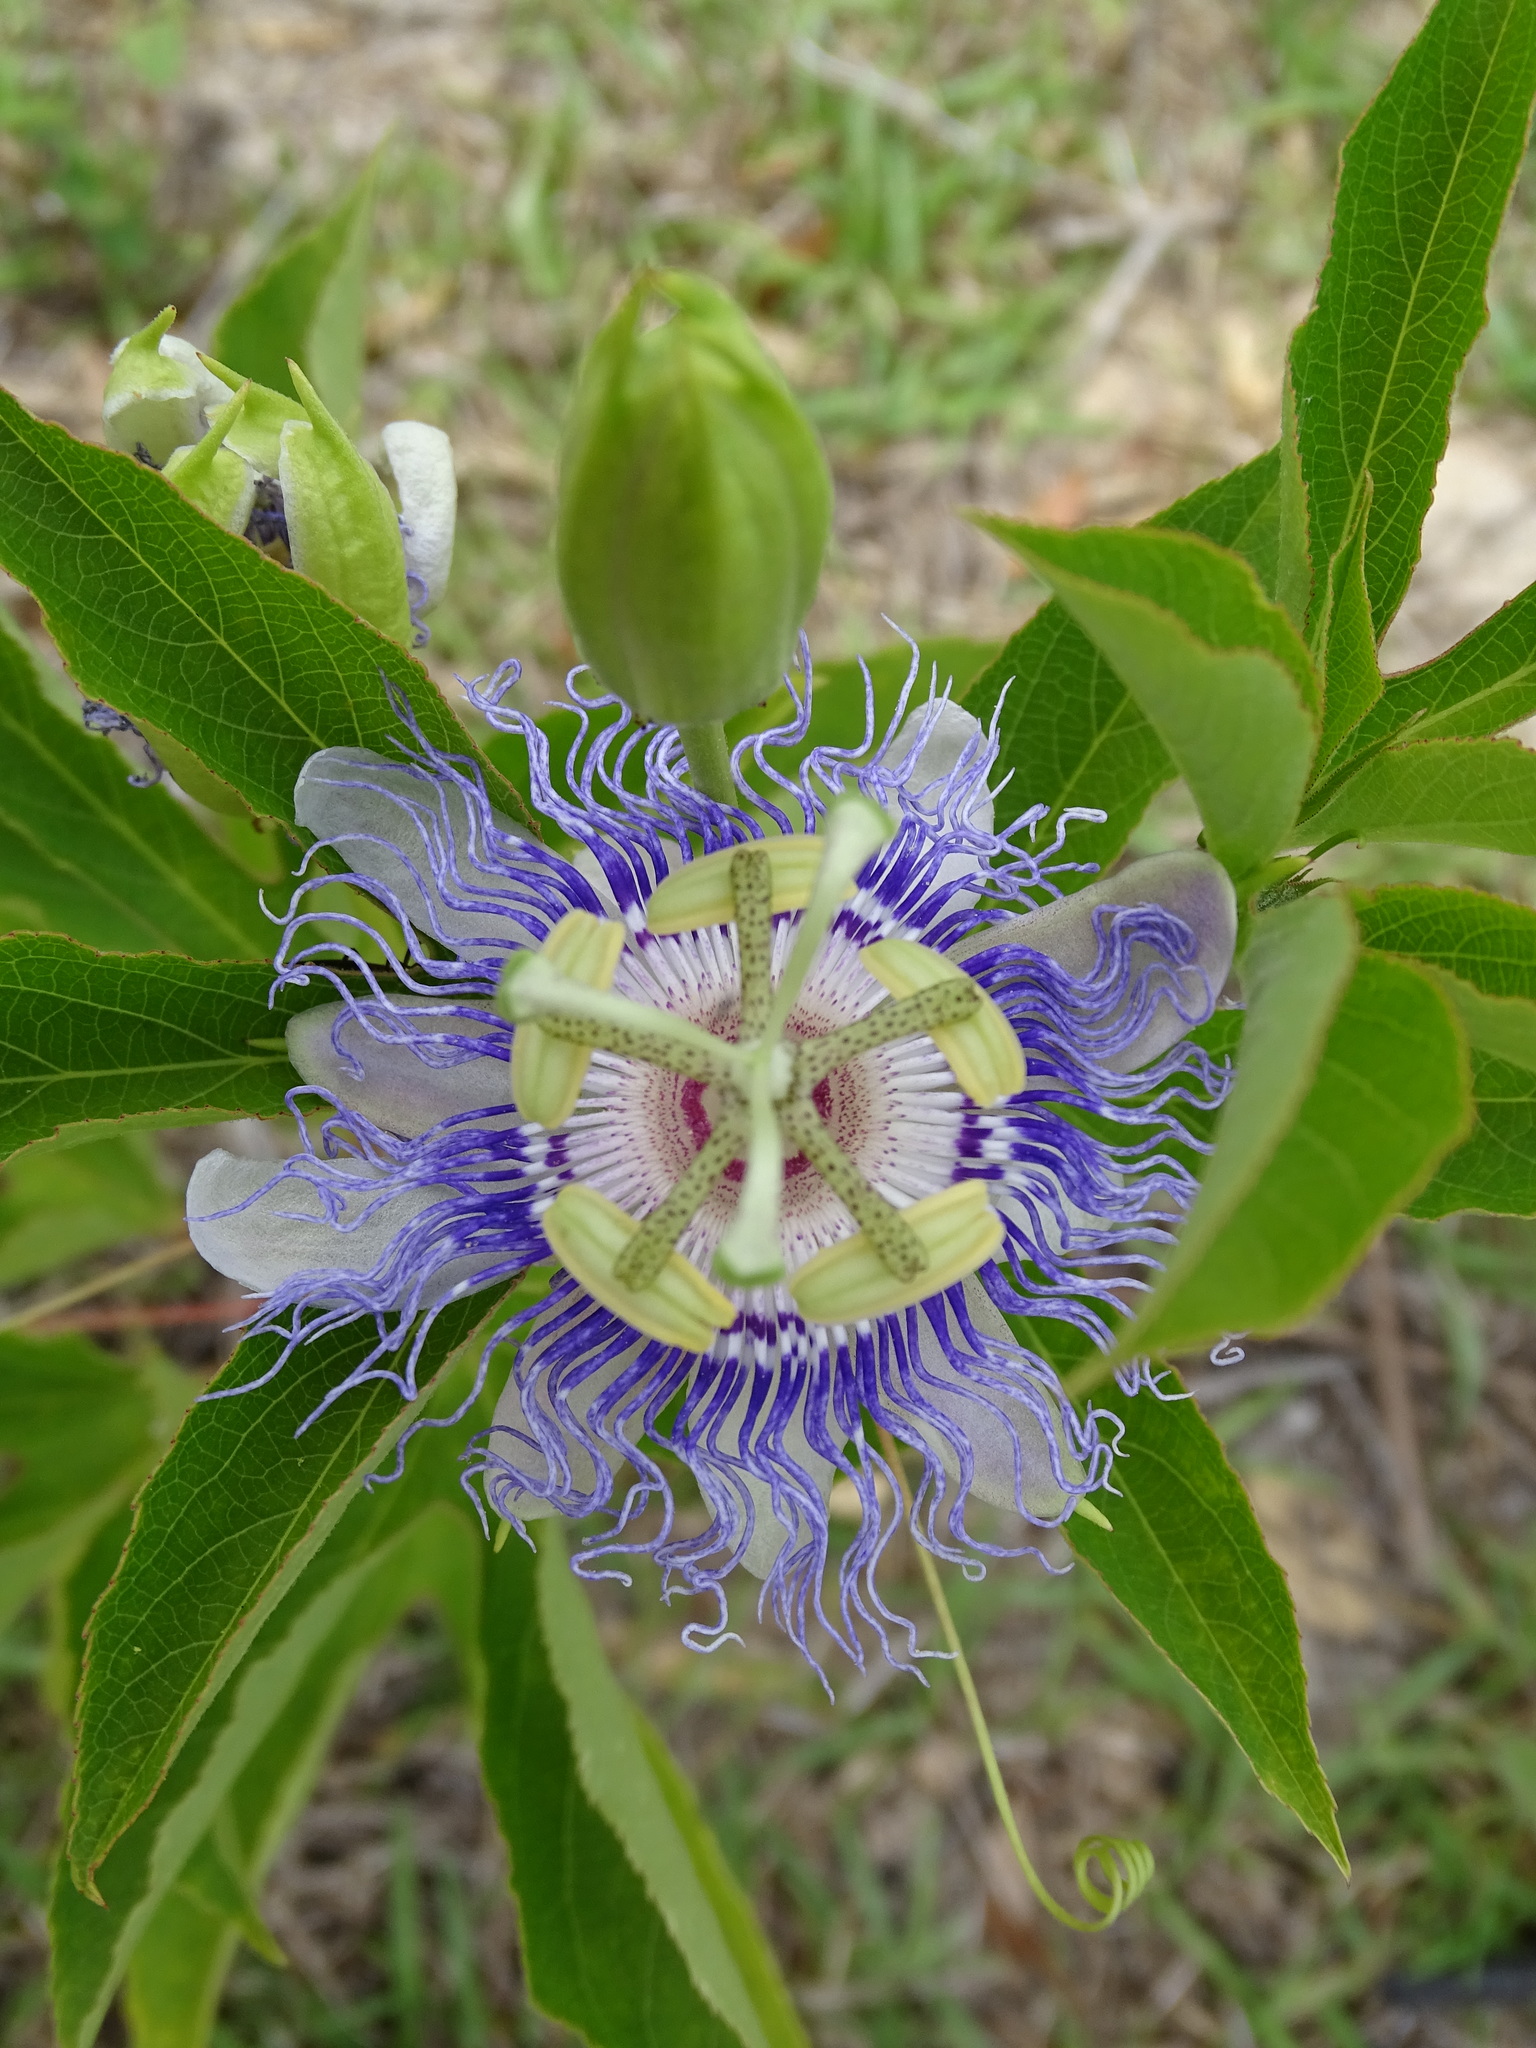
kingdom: Plantae
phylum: Tracheophyta
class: Magnoliopsida
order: Malpighiales
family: Passifloraceae
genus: Passiflora
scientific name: Passiflora incarnata
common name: Apricot-vine
